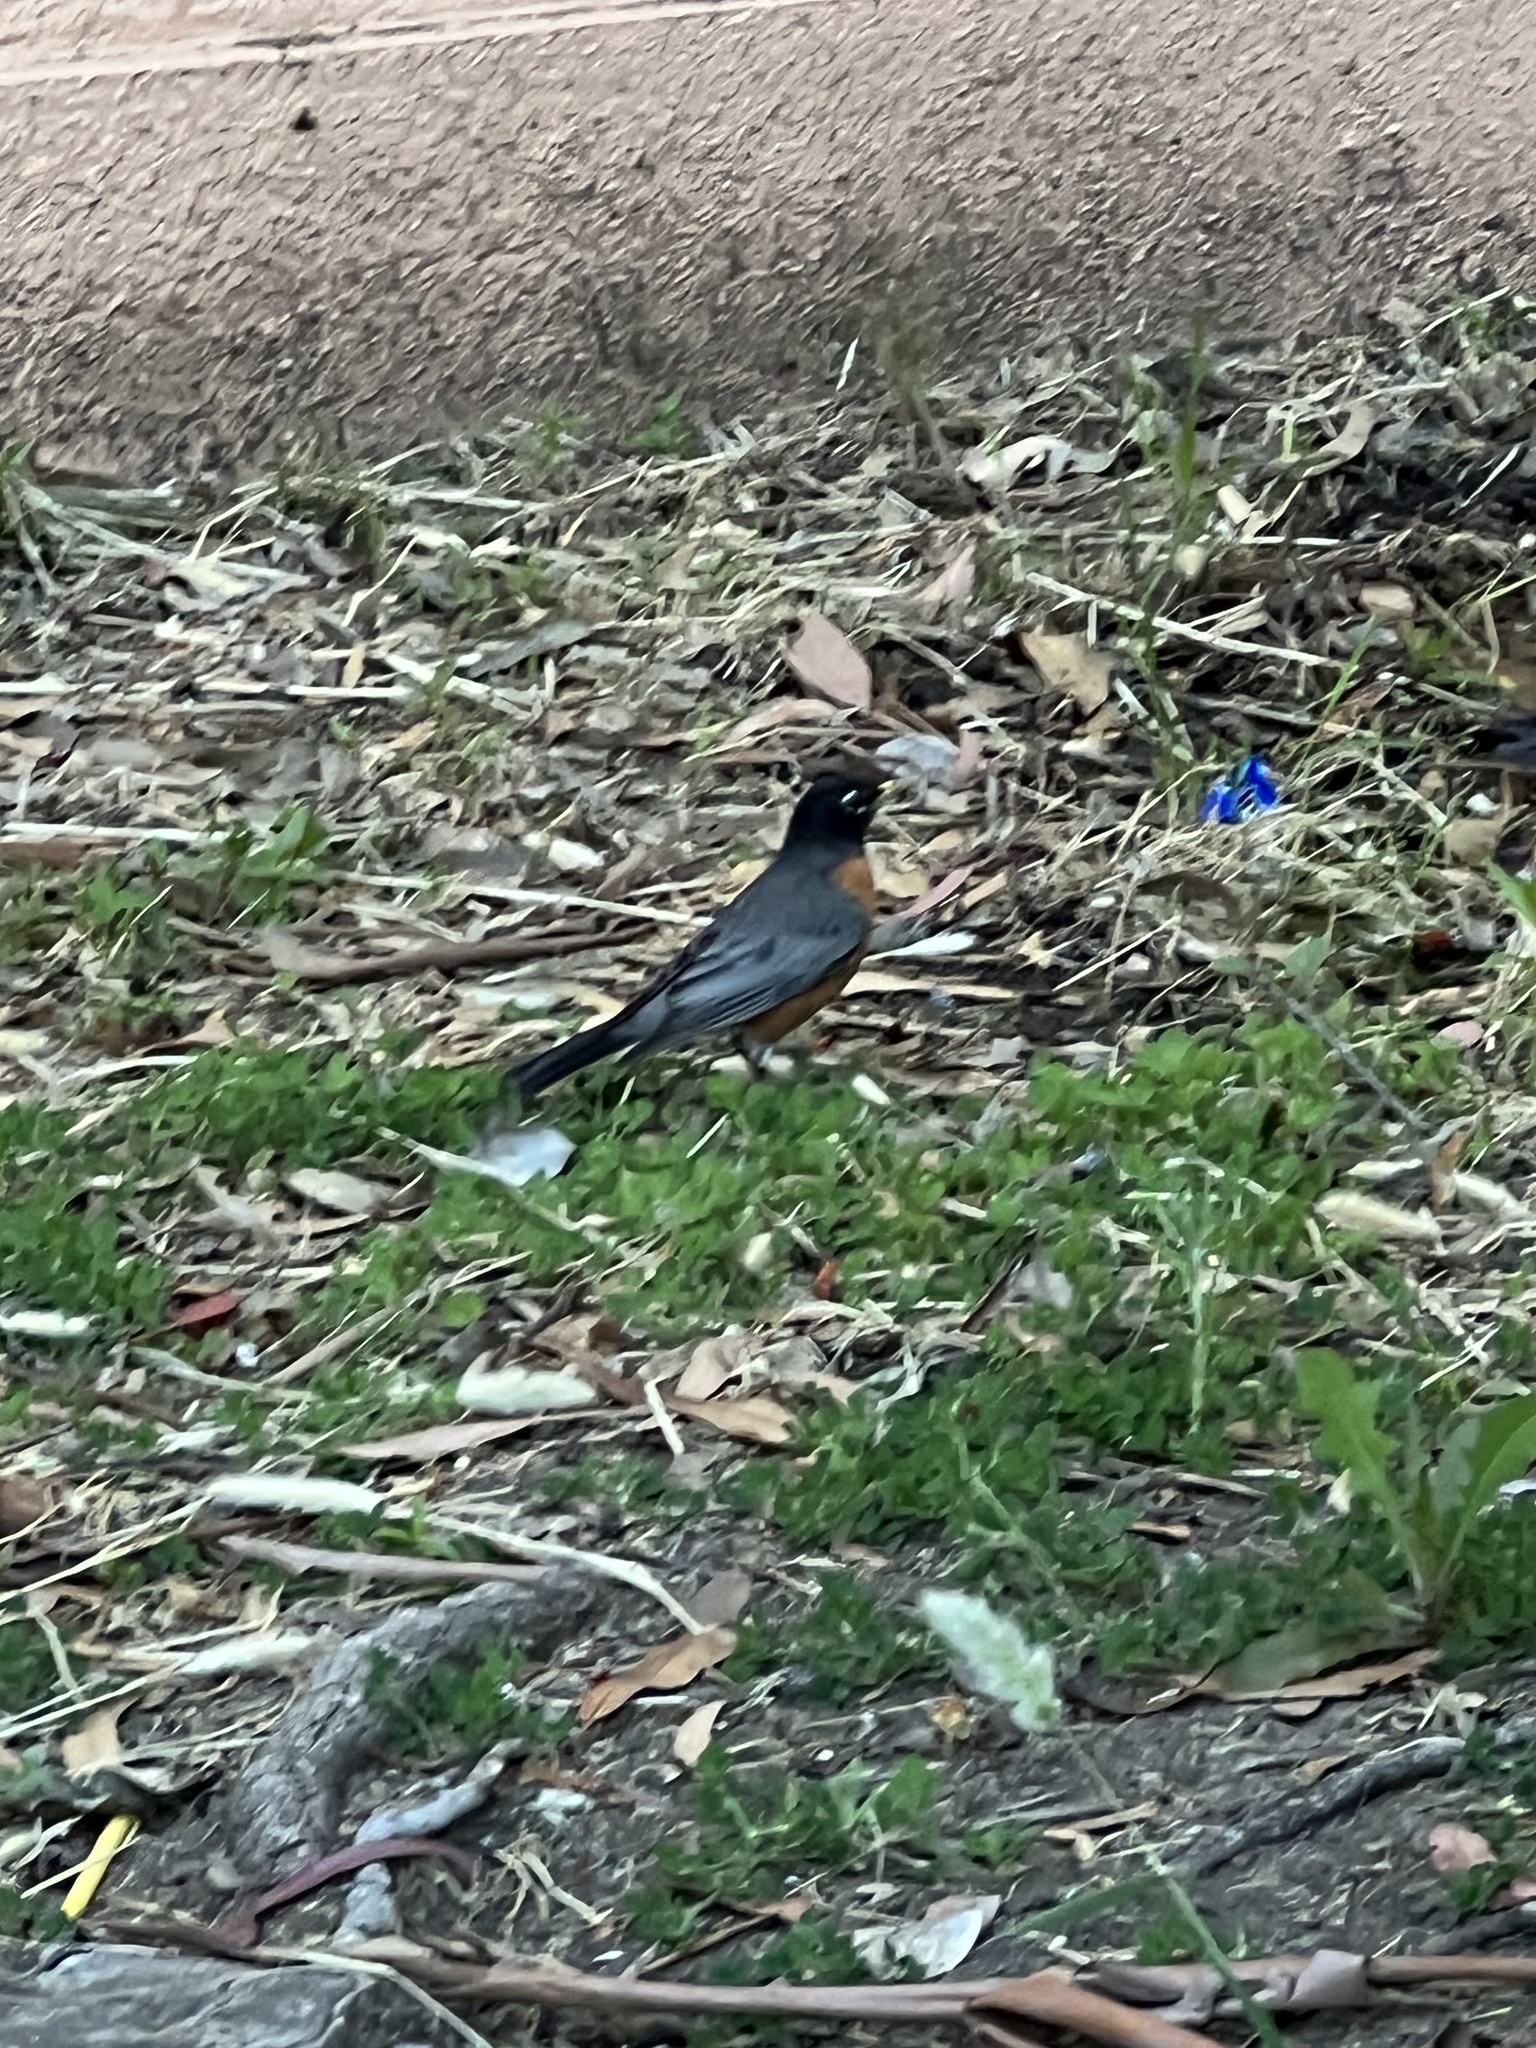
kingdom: Animalia
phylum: Chordata
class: Aves
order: Passeriformes
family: Turdidae
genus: Turdus
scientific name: Turdus migratorius
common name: American robin
